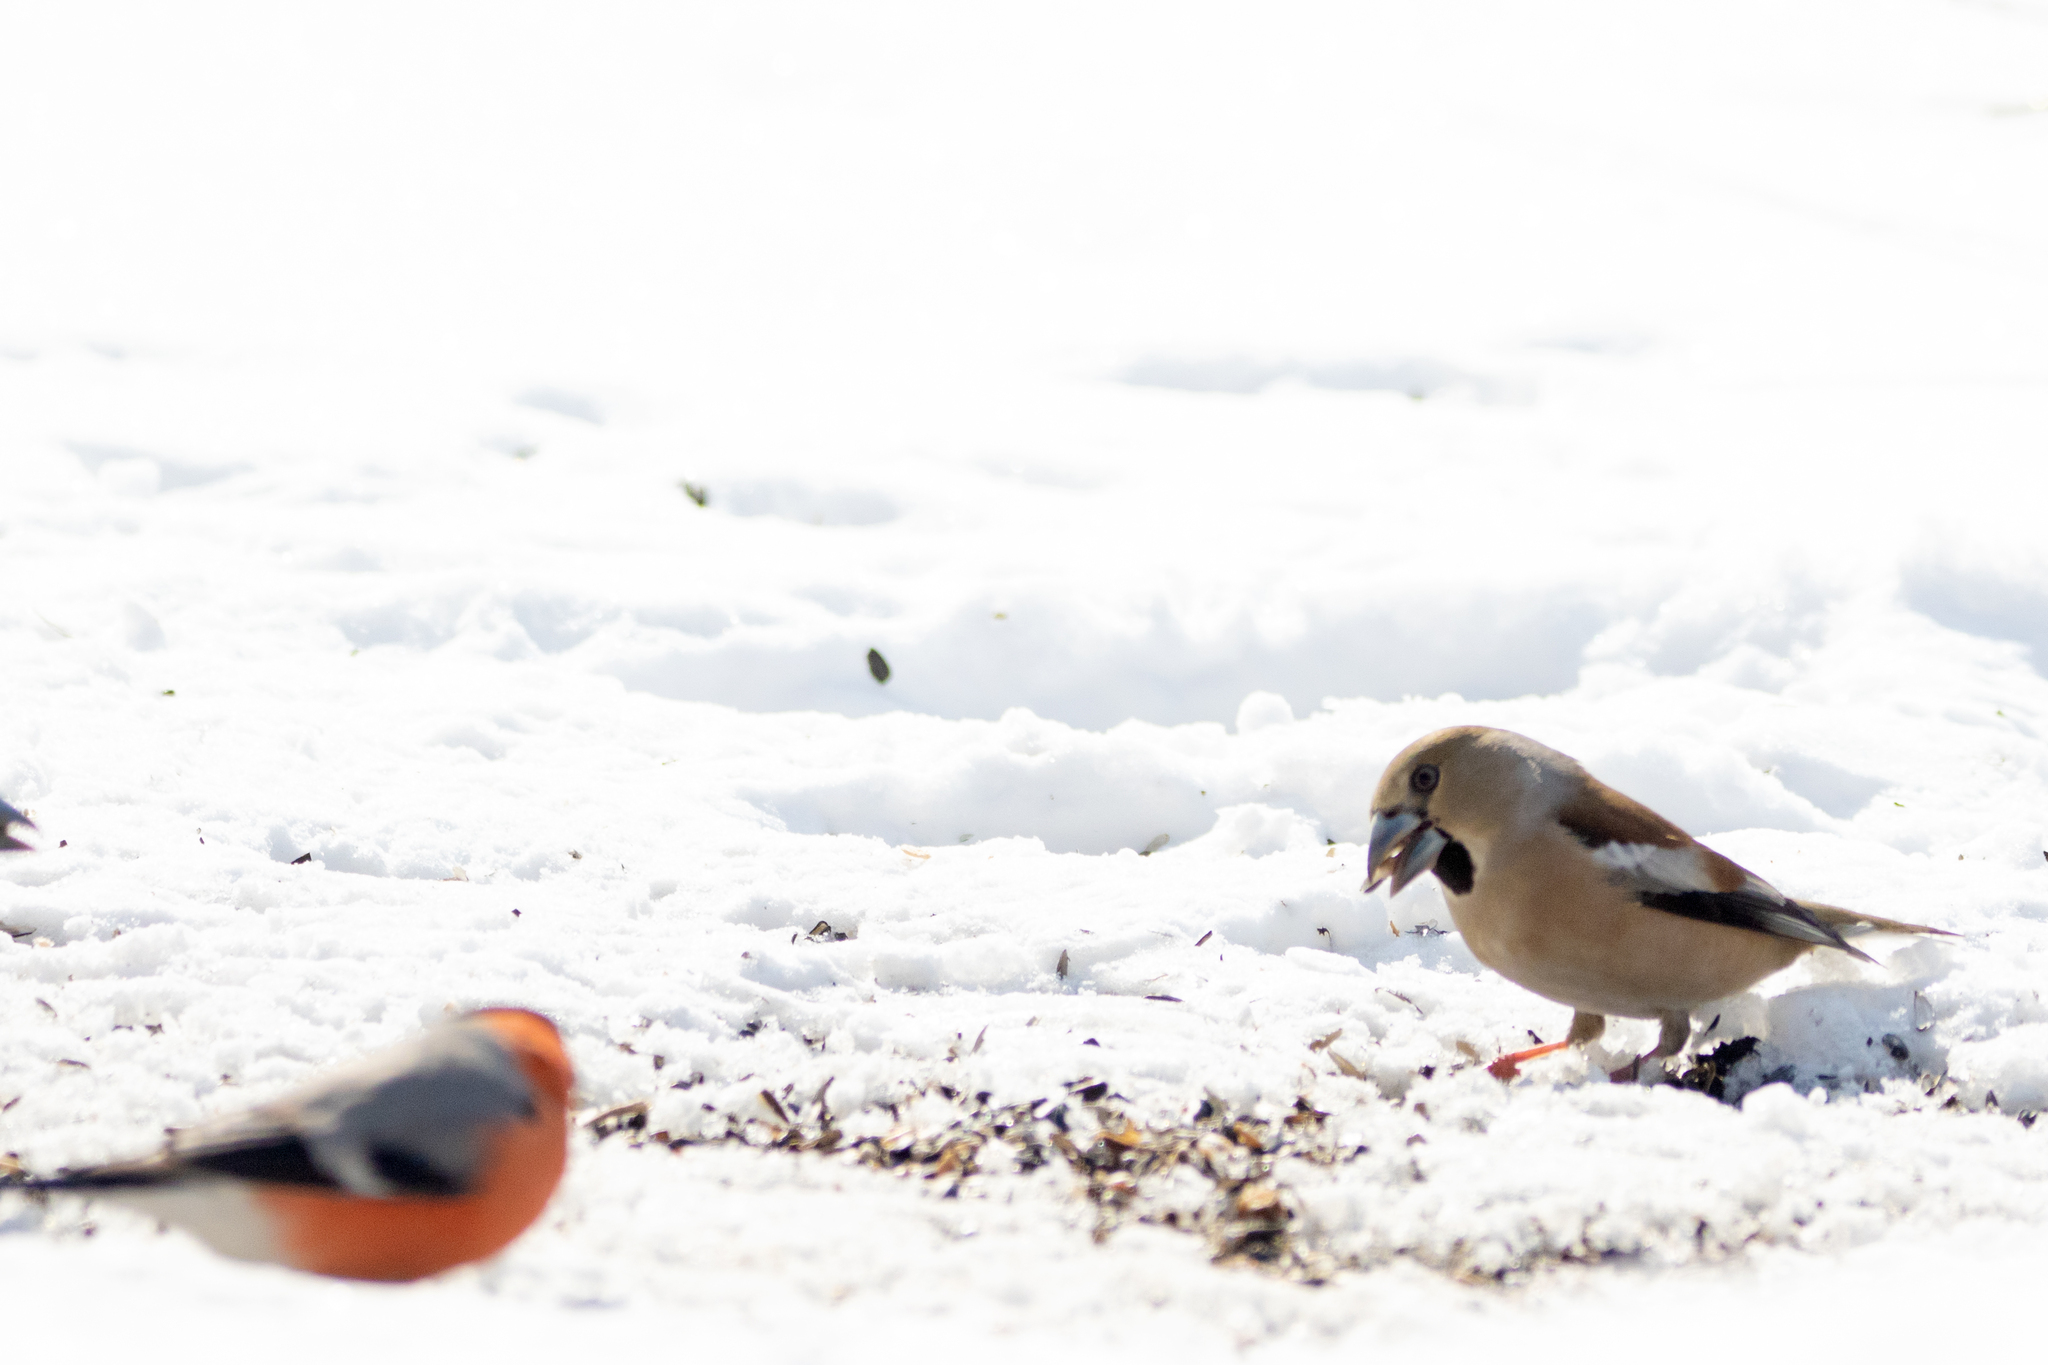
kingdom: Animalia
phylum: Chordata
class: Aves
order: Passeriformes
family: Fringillidae
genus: Coccothraustes
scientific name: Coccothraustes coccothraustes
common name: Hawfinch
